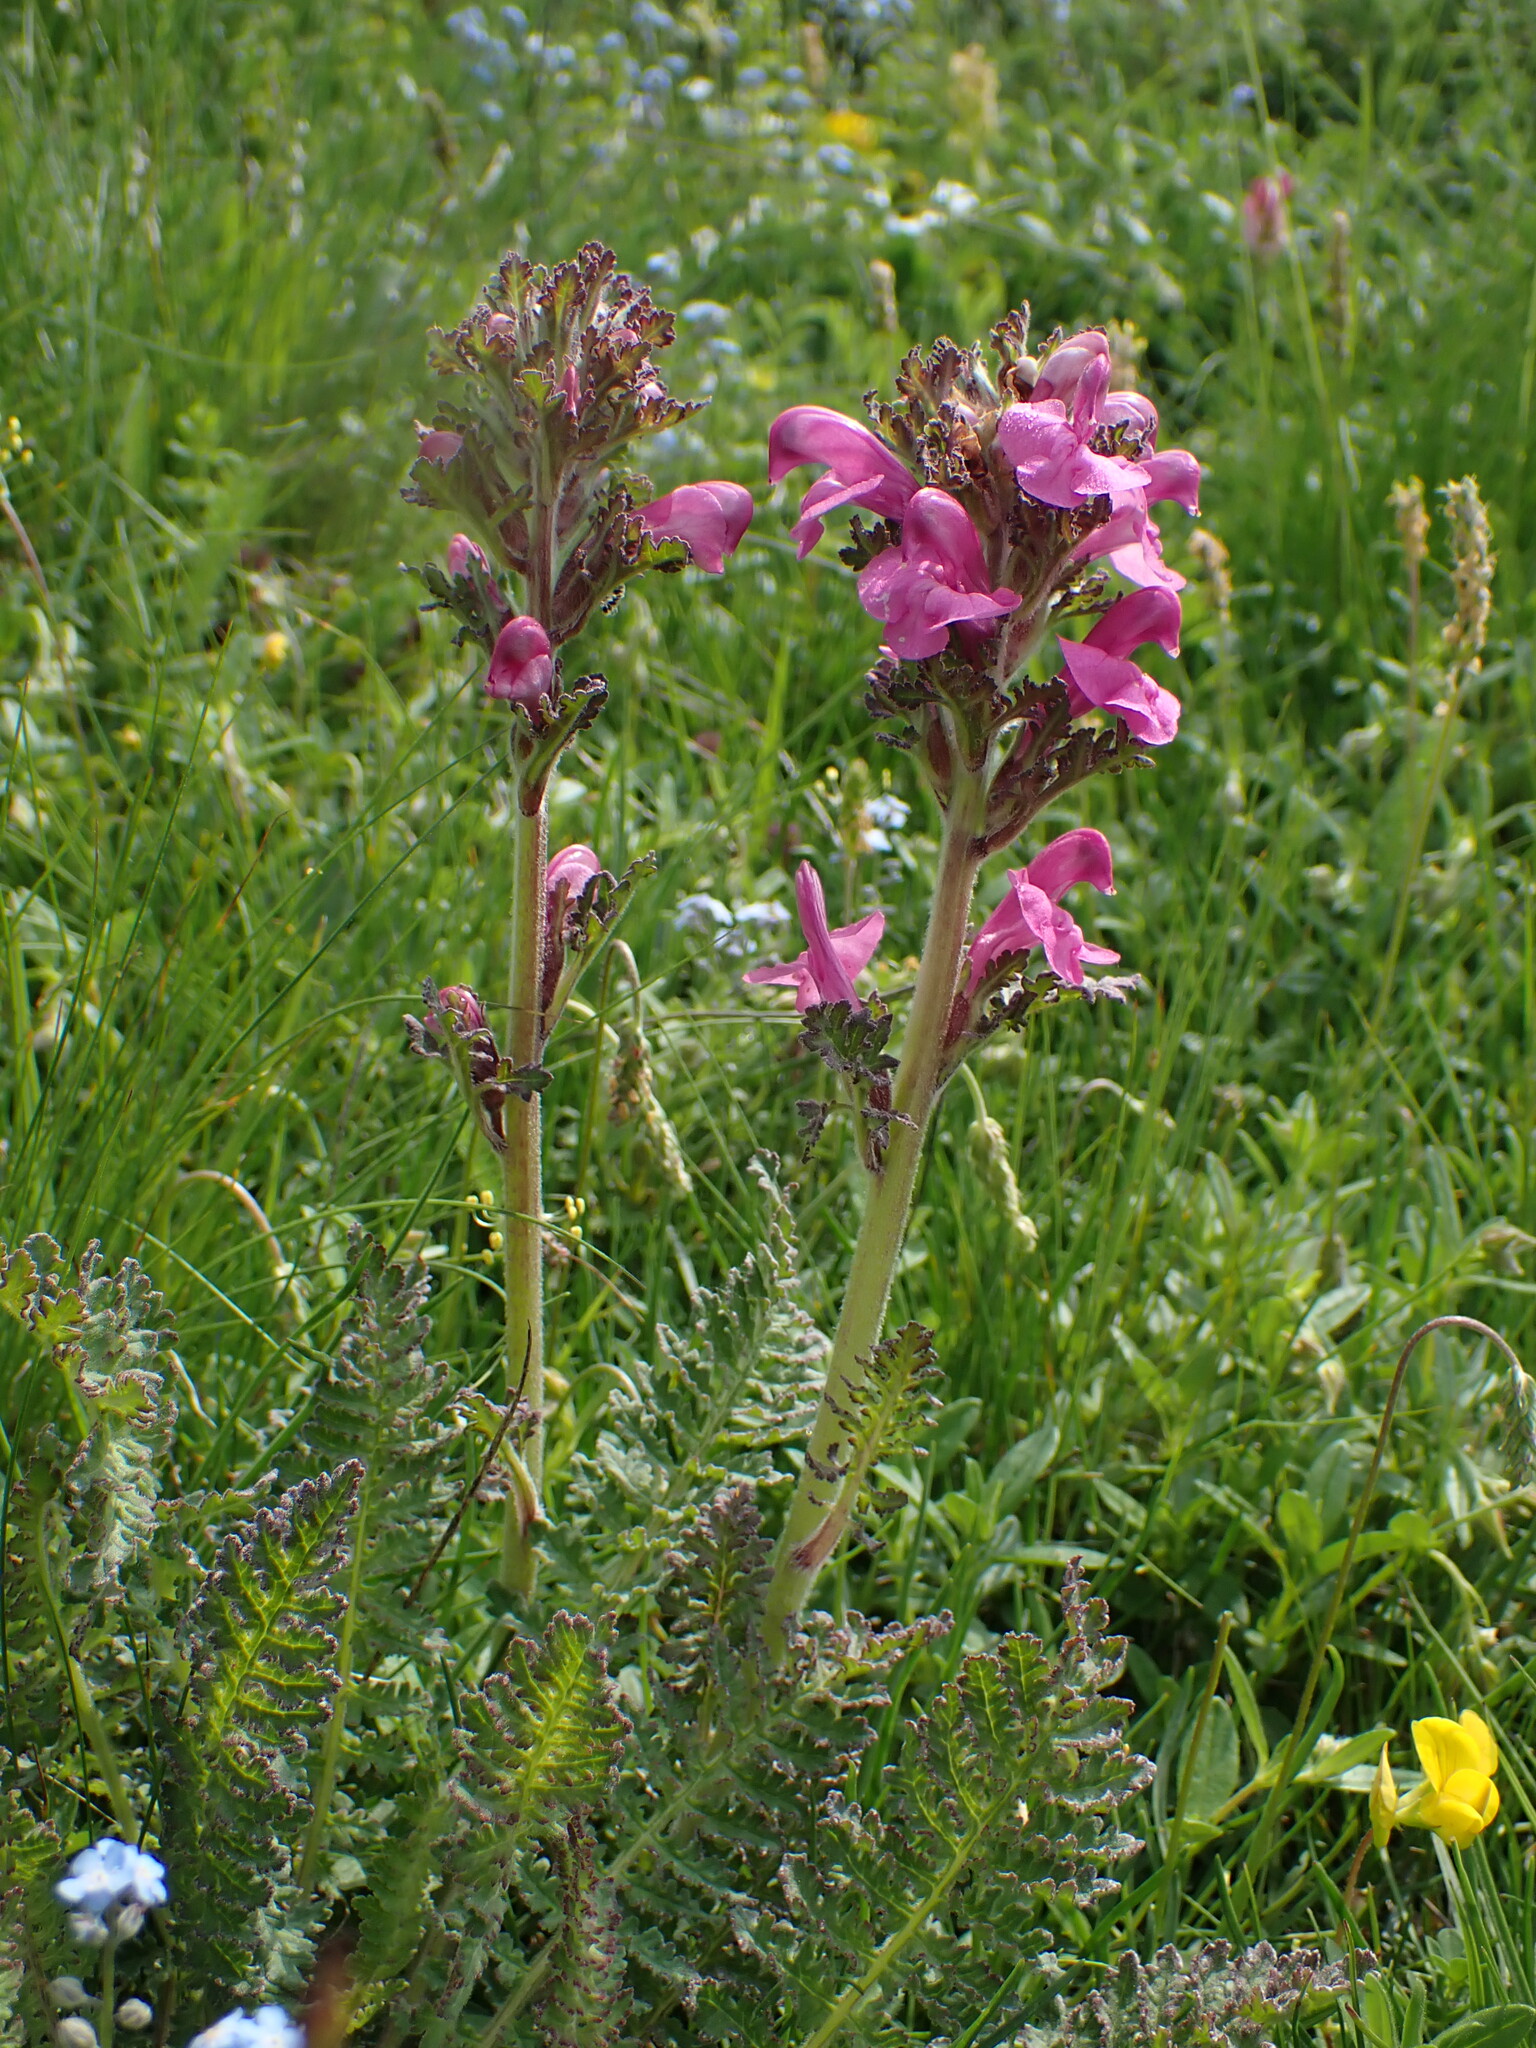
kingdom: Plantae
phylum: Tracheophyta
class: Magnoliopsida
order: Lamiales
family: Orobanchaceae
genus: Pedicularis
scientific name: Pedicularis gyroflexa
